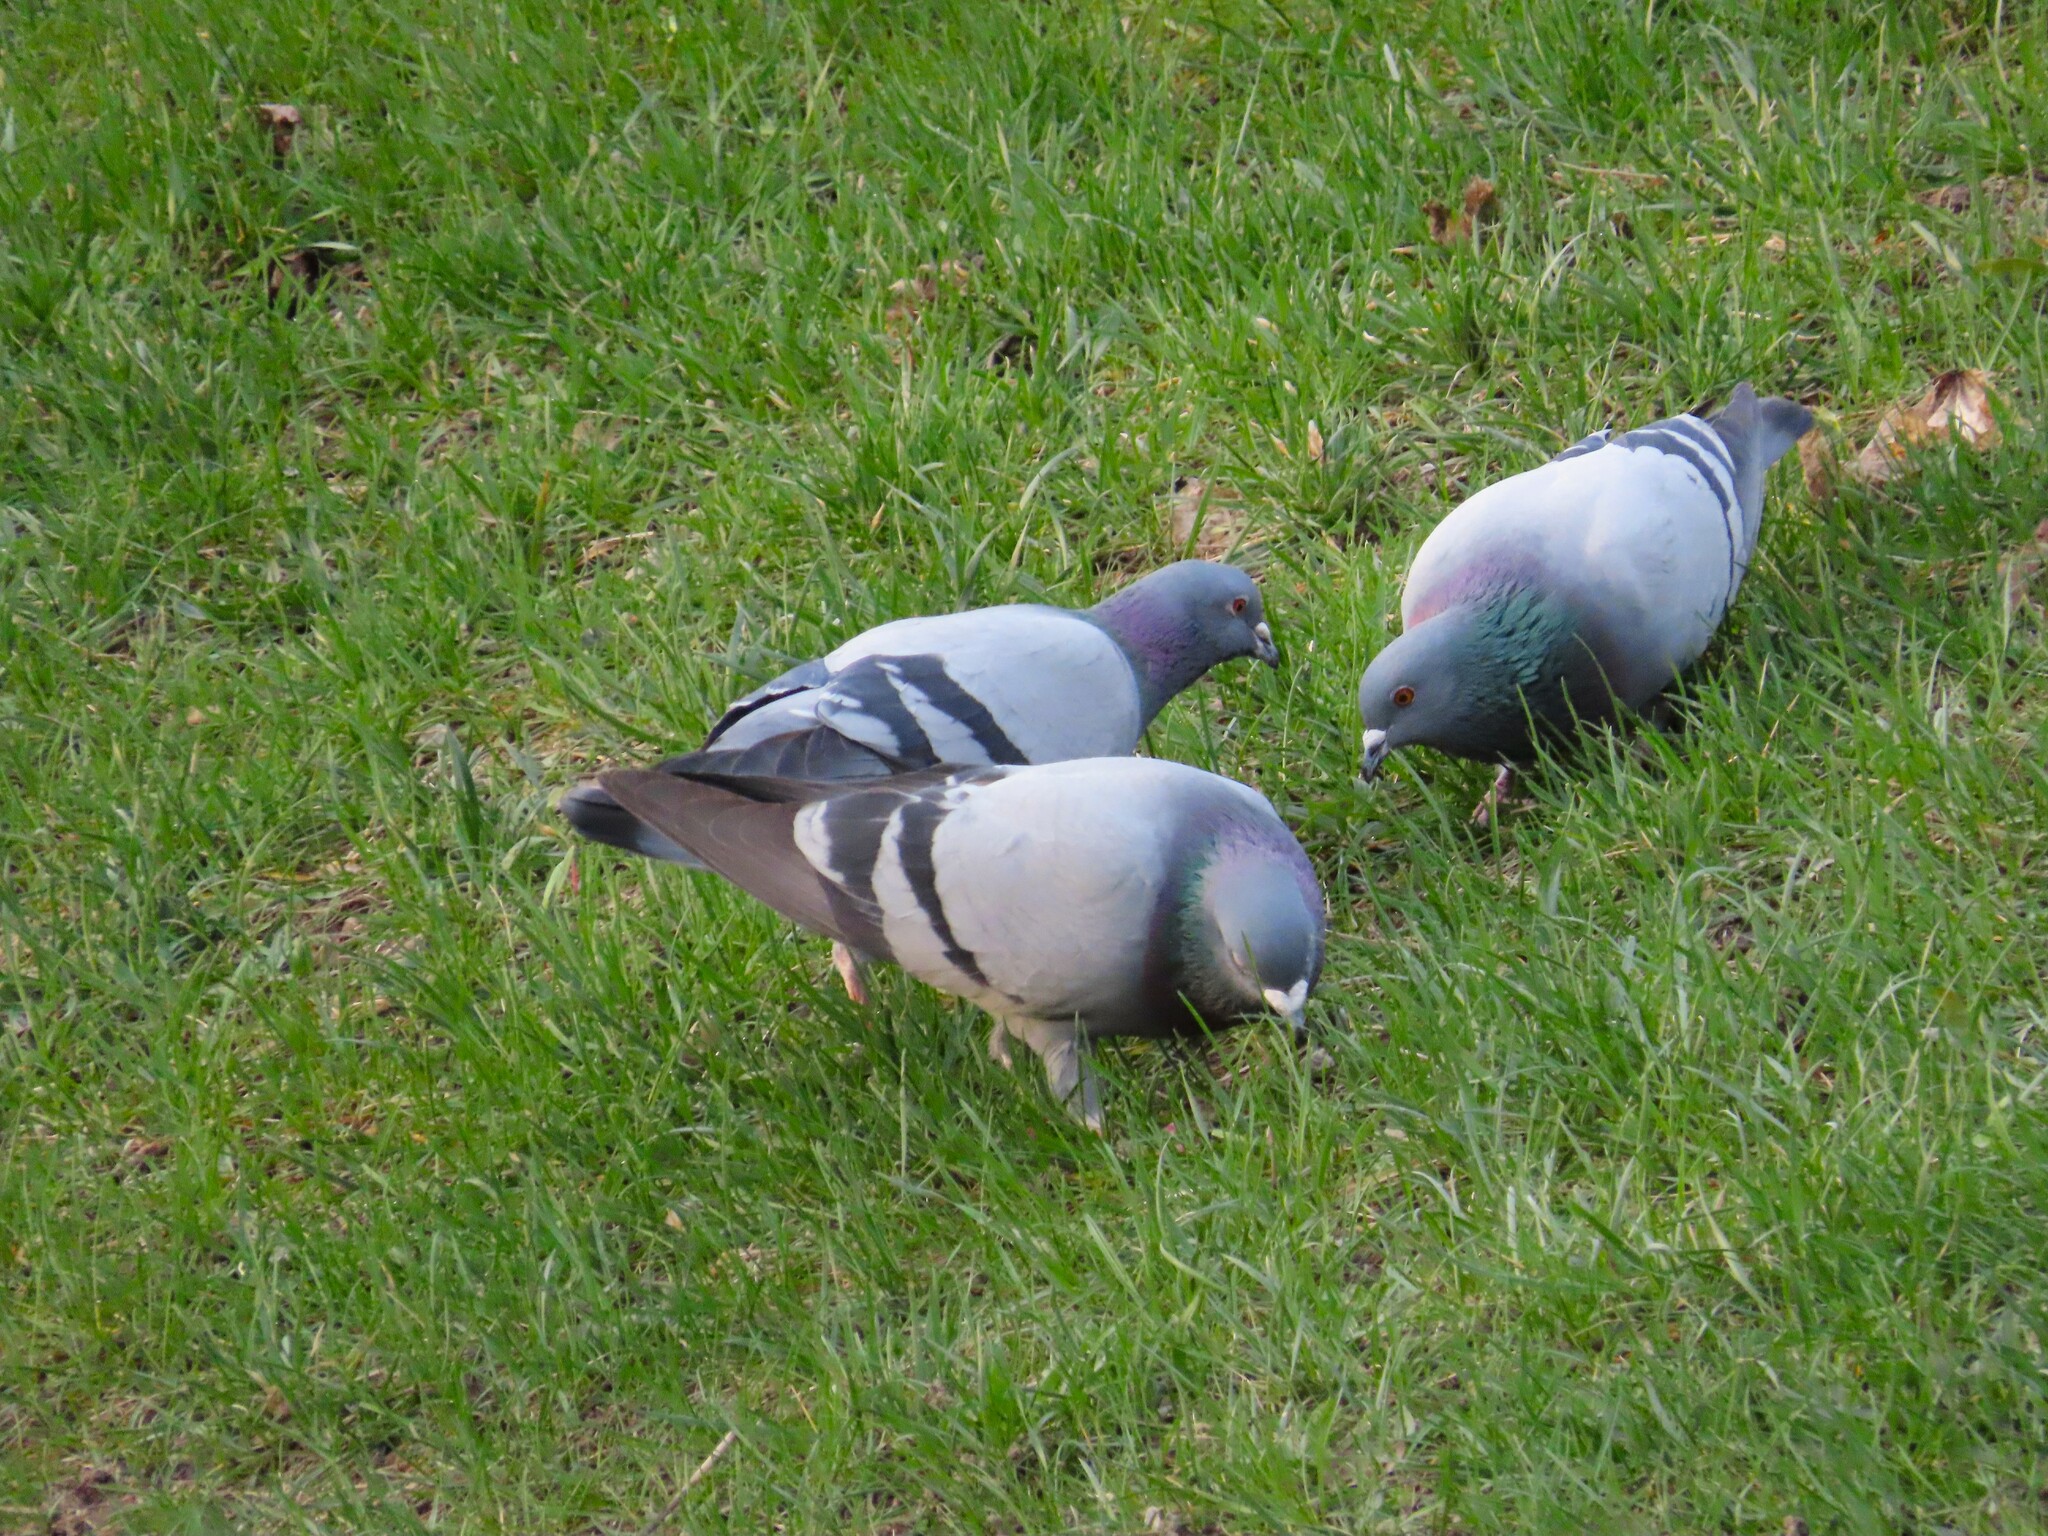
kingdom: Animalia
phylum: Chordata
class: Aves
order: Columbiformes
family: Columbidae
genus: Columba
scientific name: Columba livia
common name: Rock pigeon
